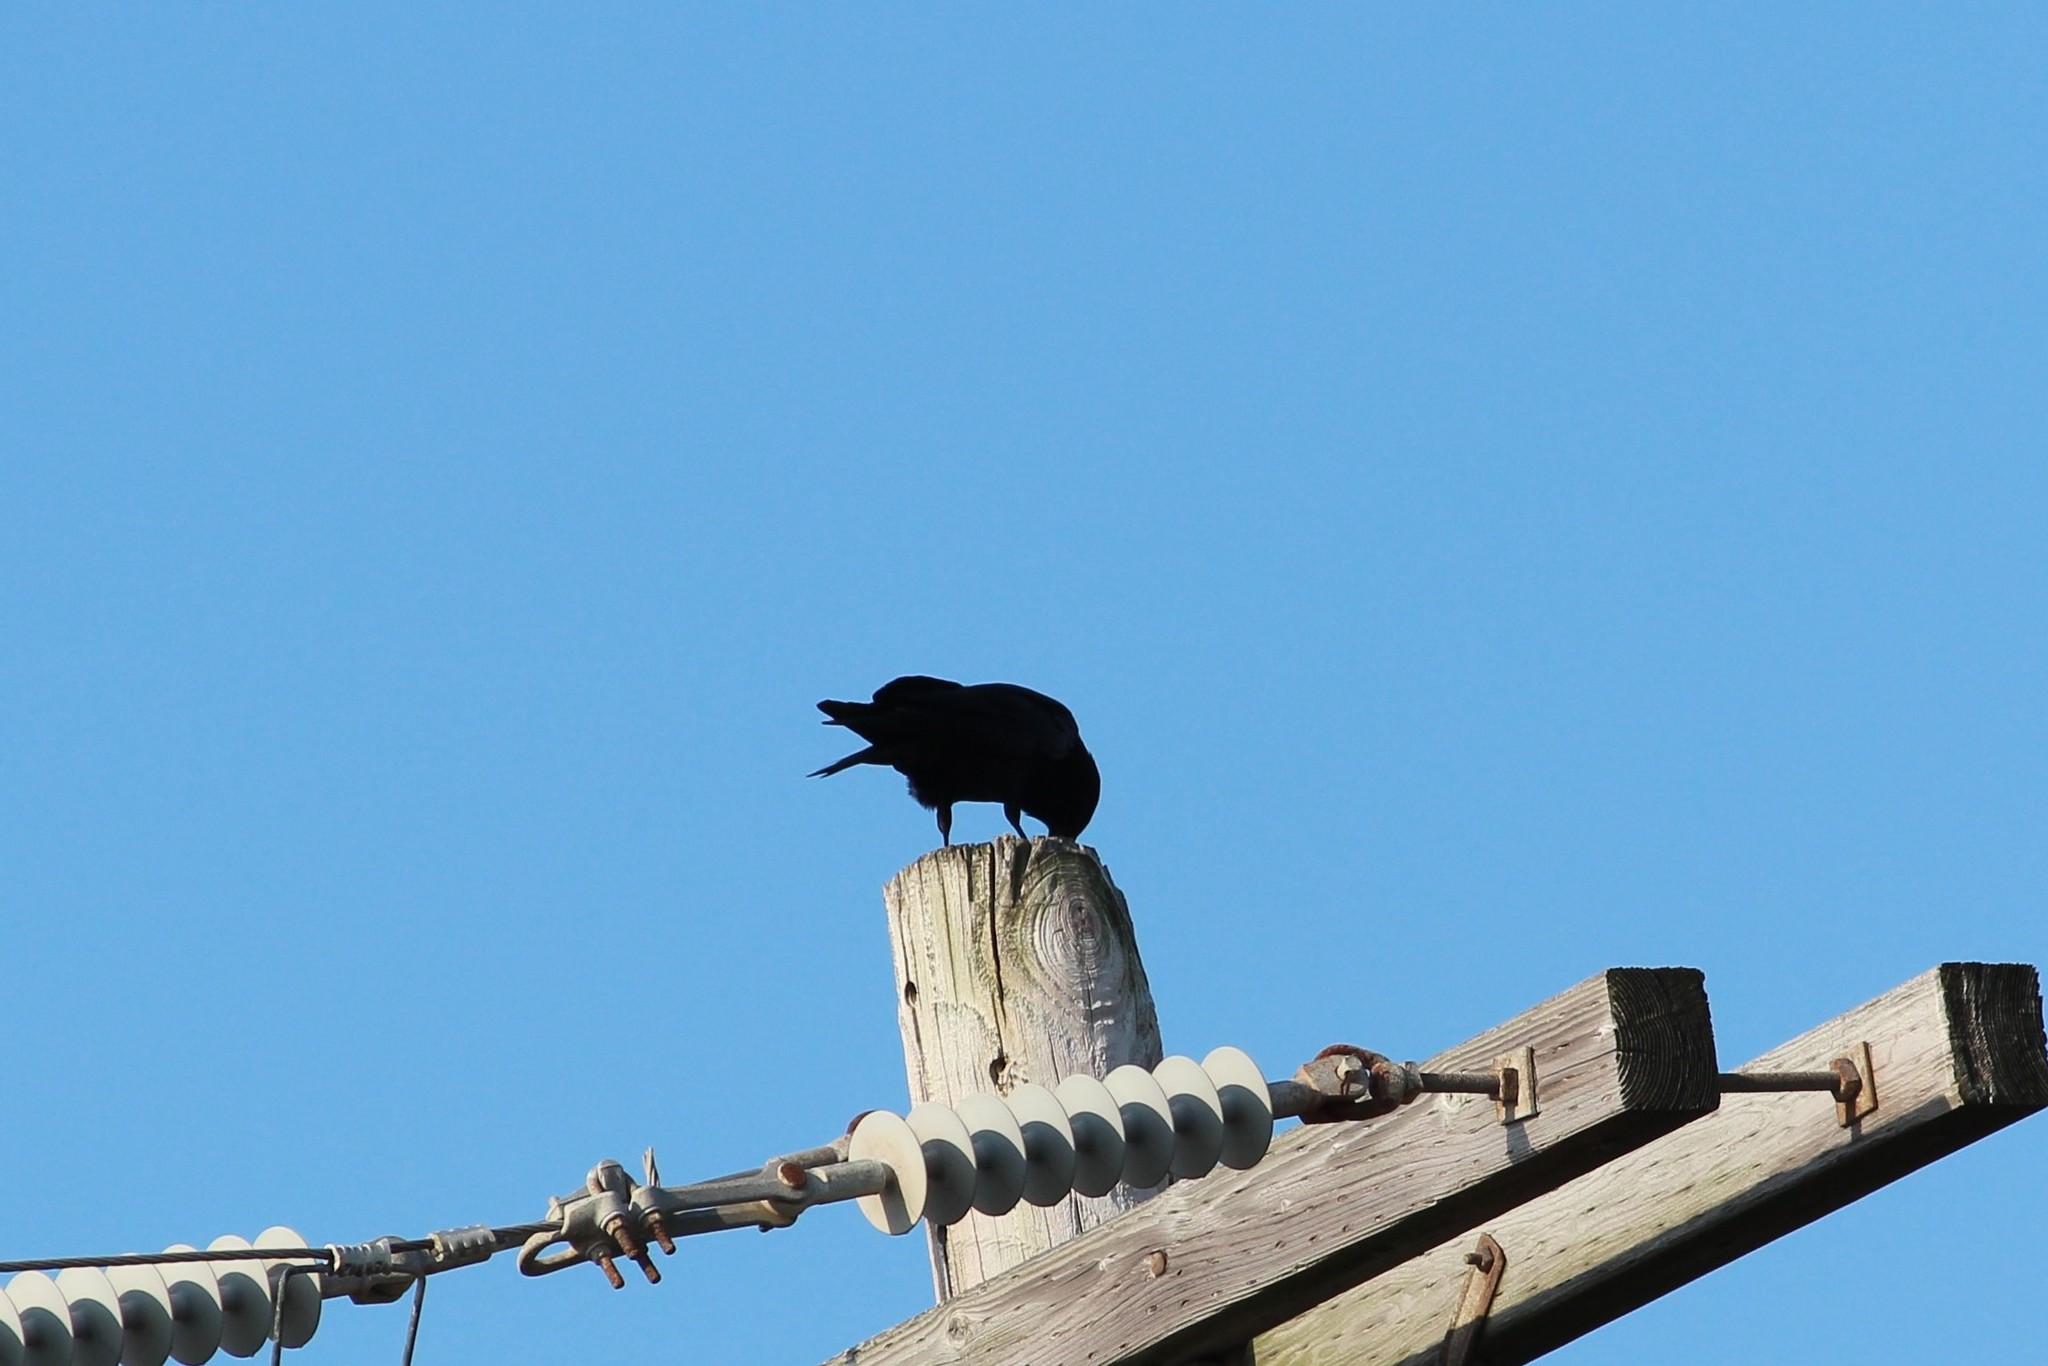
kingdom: Animalia
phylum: Chordata
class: Aves
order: Passeriformes
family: Corvidae
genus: Corvus
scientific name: Corvus ossifragus
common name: Fish crow
